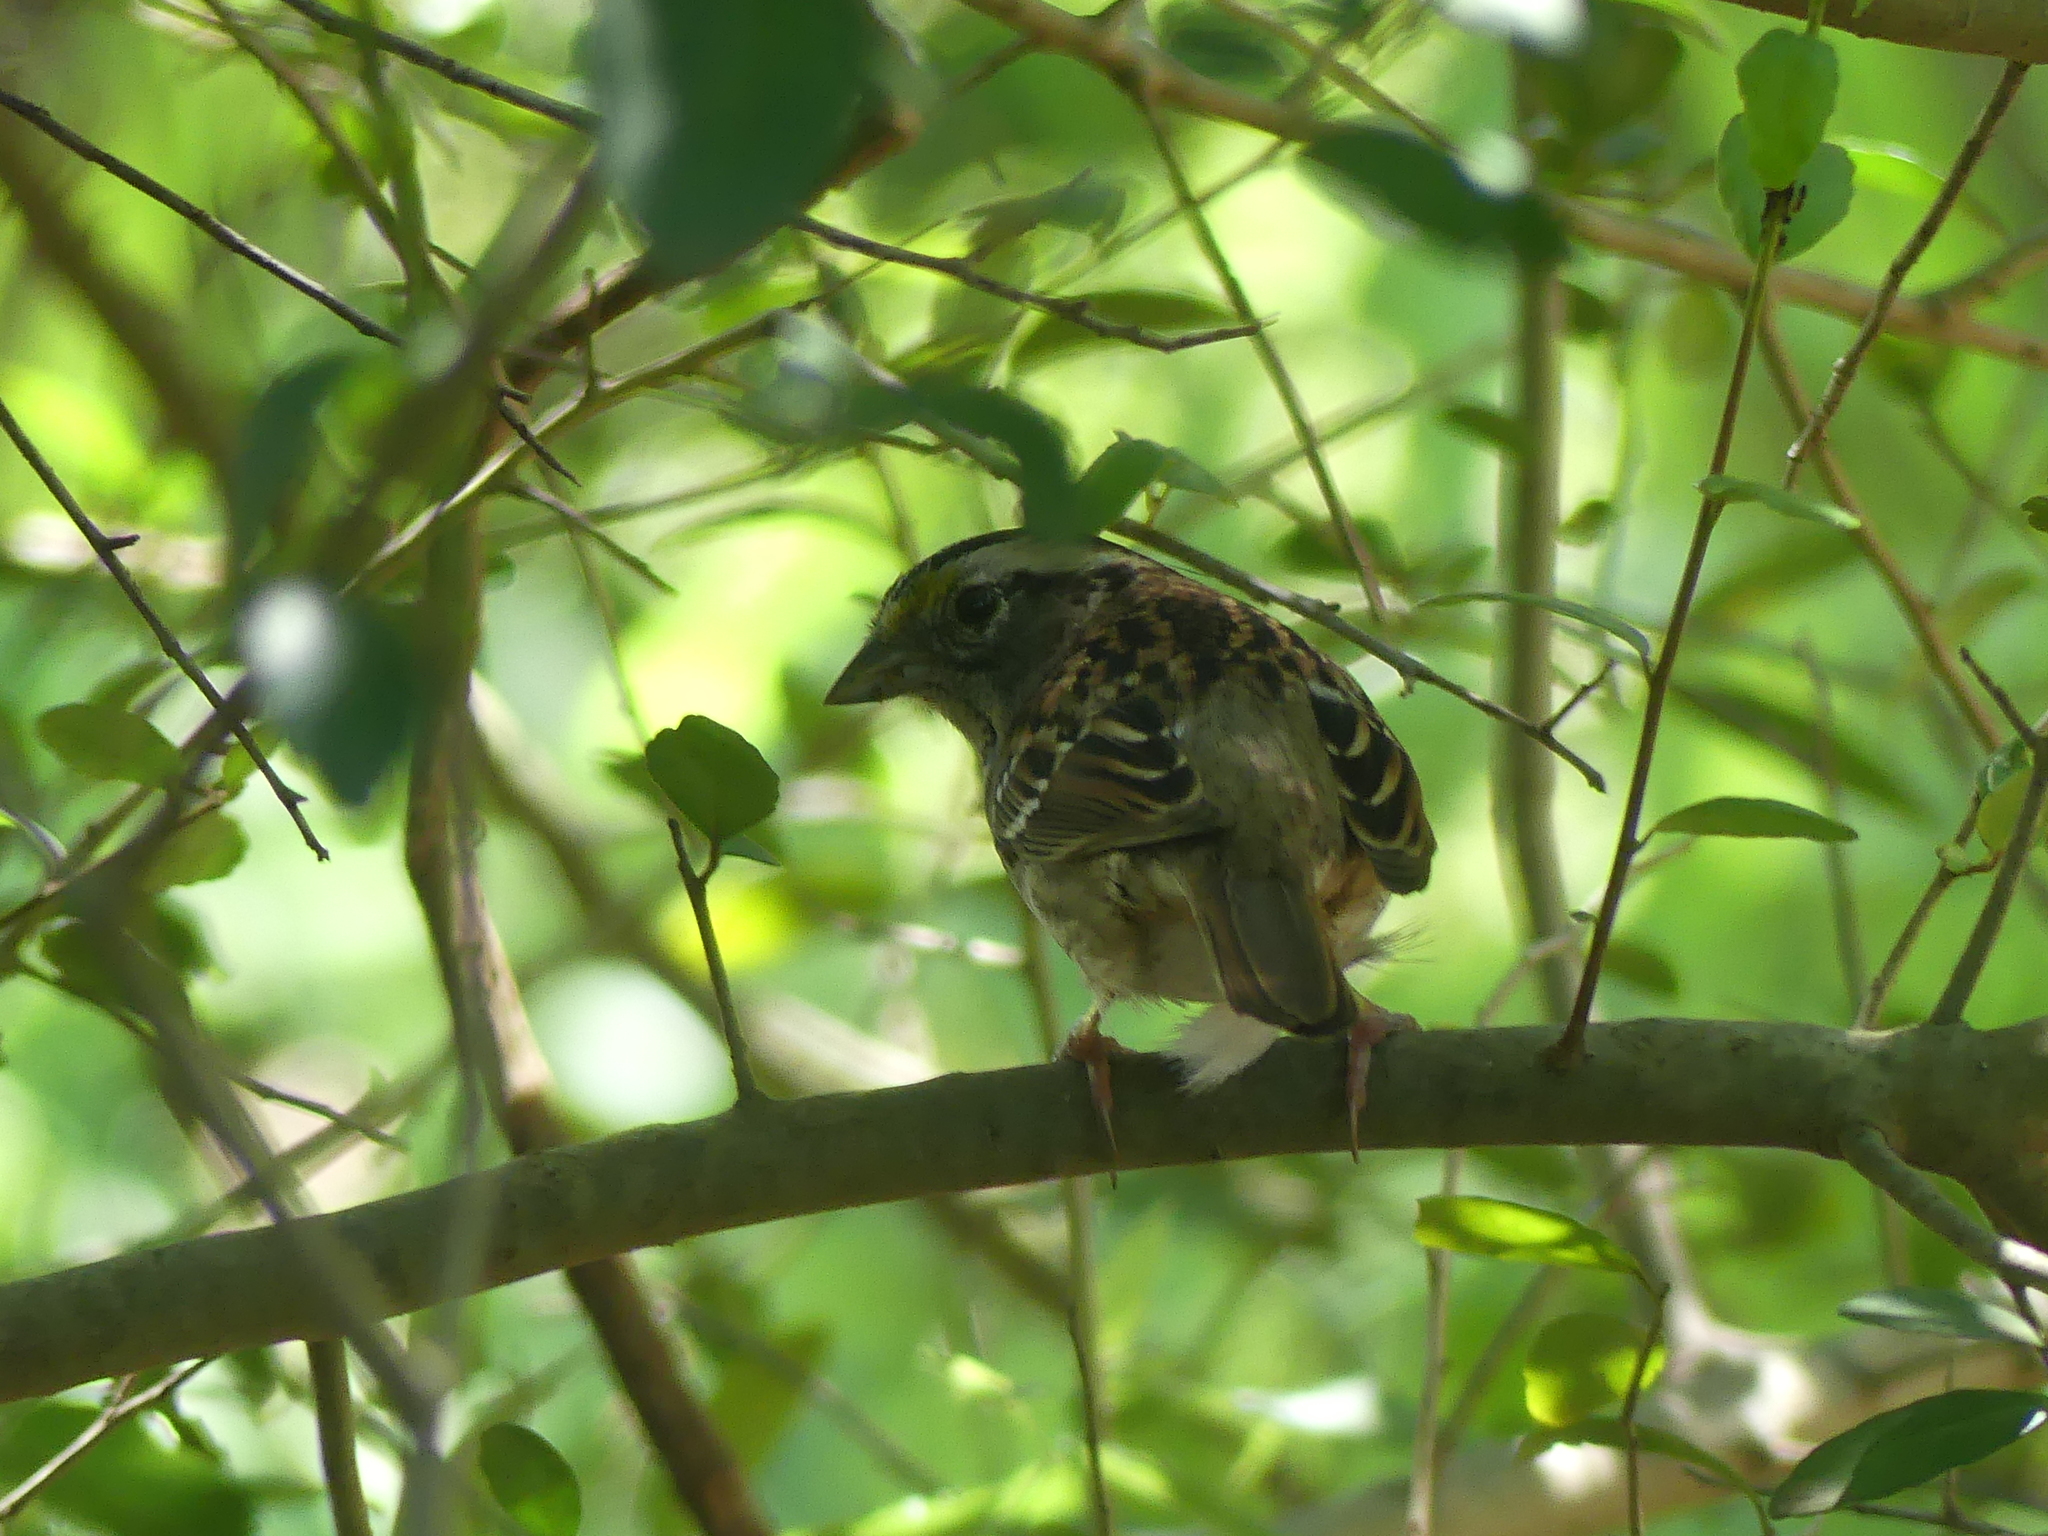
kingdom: Animalia
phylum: Chordata
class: Aves
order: Passeriformes
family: Passerellidae
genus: Zonotrichia
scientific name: Zonotrichia albicollis
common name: White-throated sparrow
